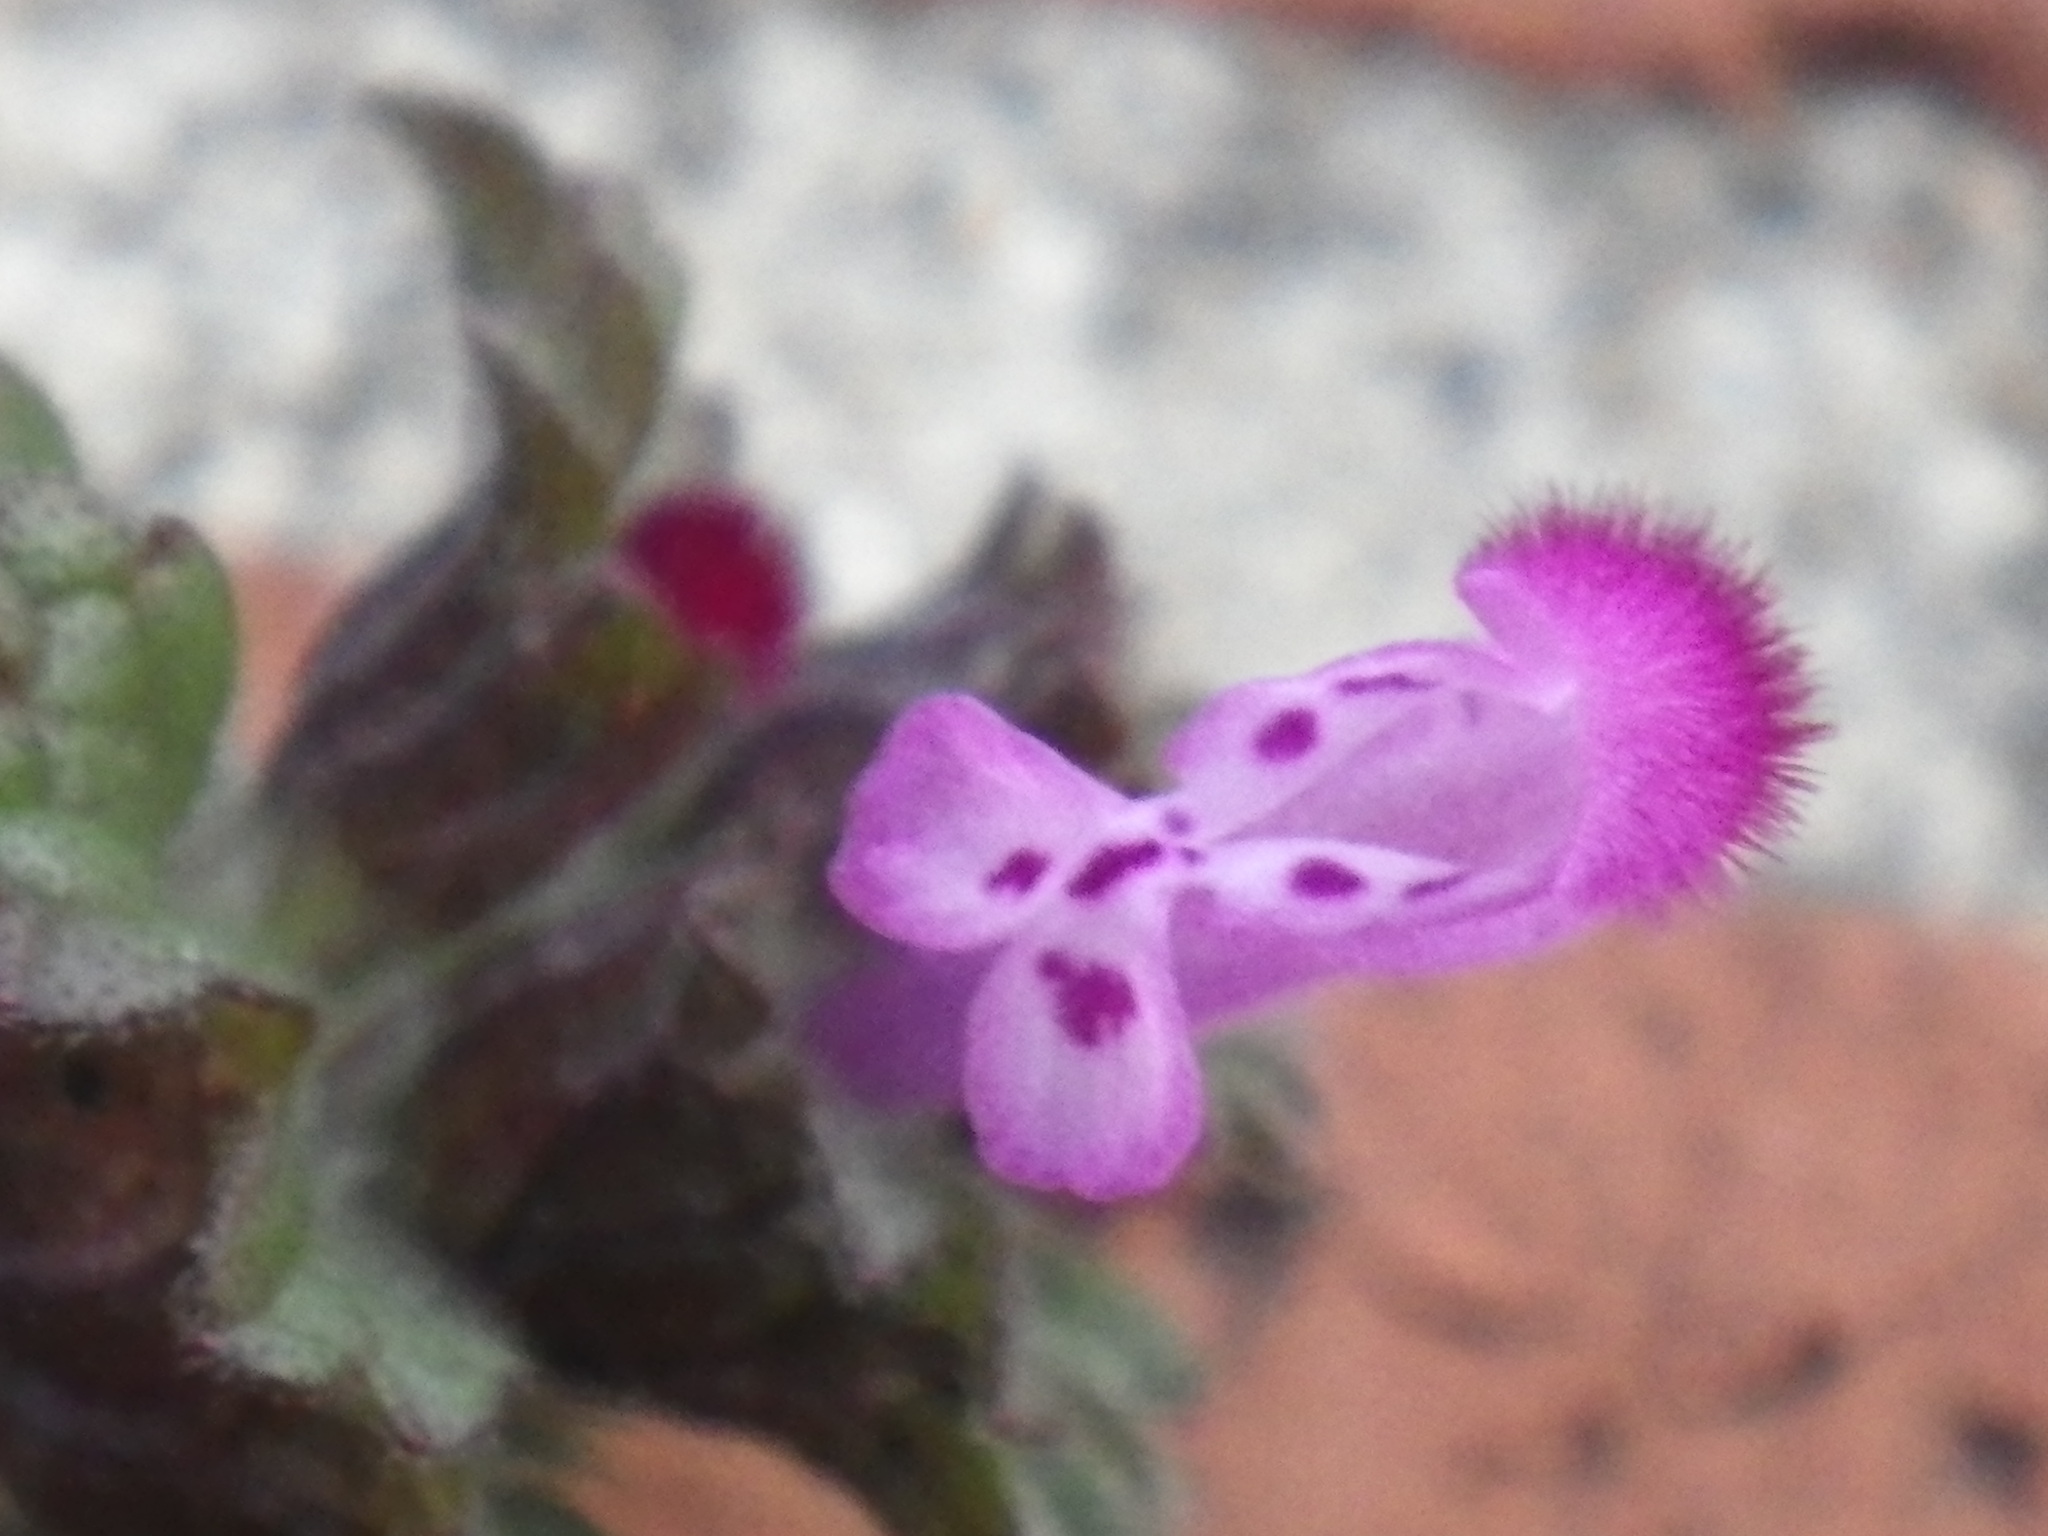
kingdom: Plantae
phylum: Tracheophyta
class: Magnoliopsida
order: Lamiales
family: Lamiaceae
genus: Lamium
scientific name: Lamium amplexicaule
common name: Henbit dead-nettle
